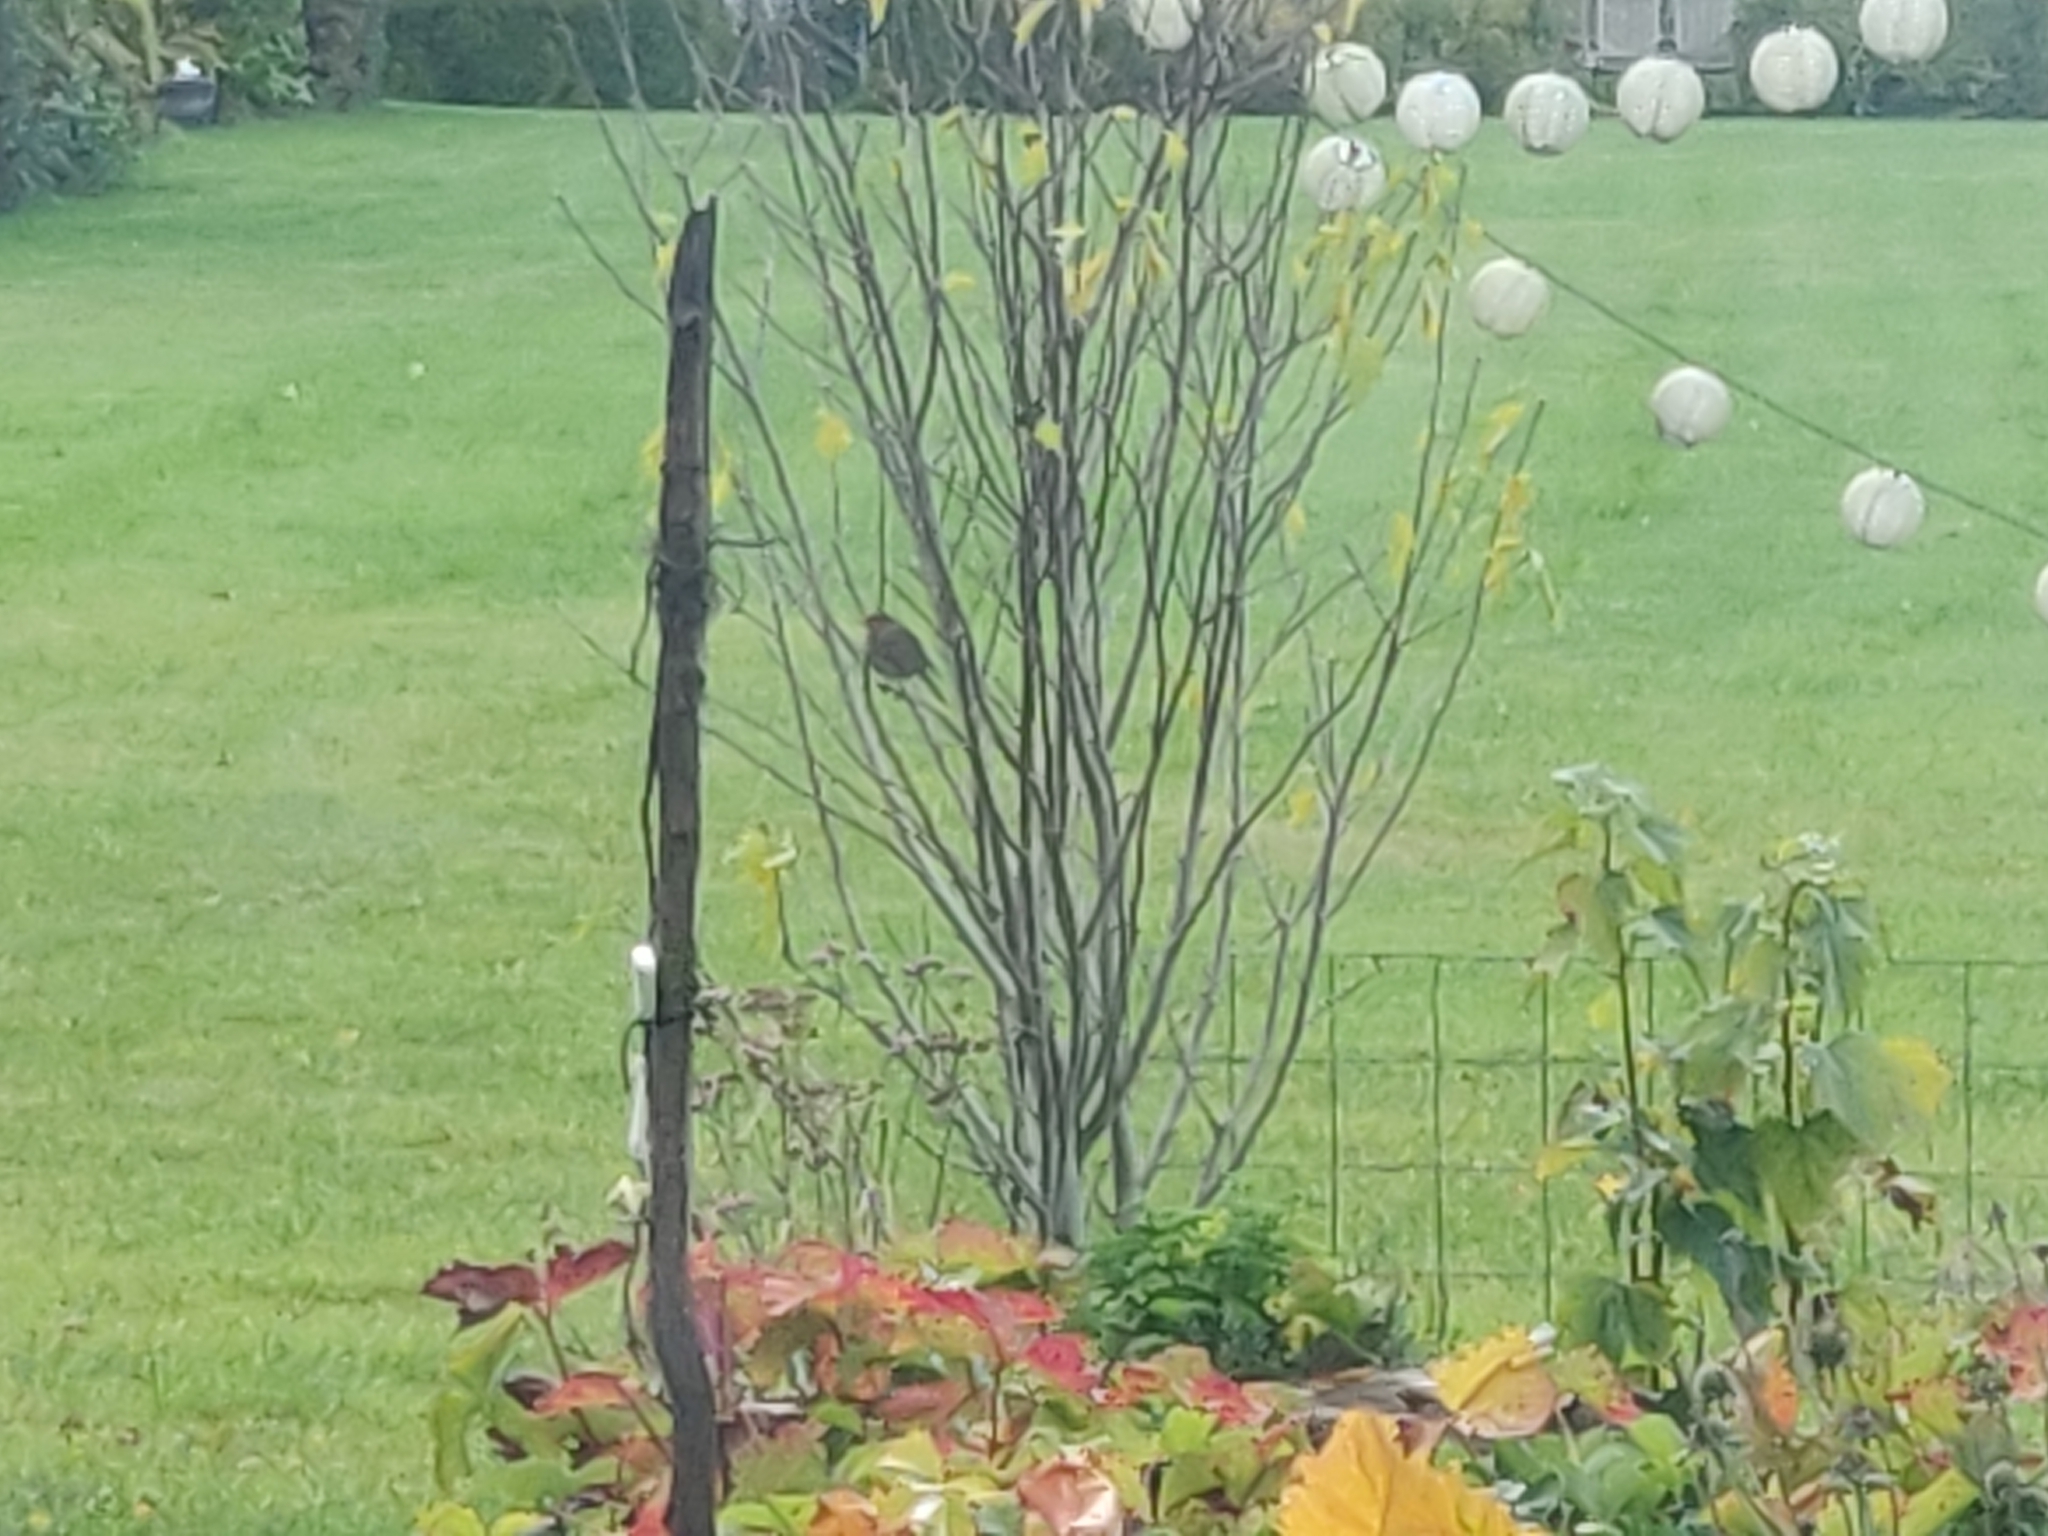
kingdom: Animalia
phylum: Chordata
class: Aves
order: Passeriformes
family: Muscicapidae
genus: Erithacus
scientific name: Erithacus rubecula
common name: European robin
